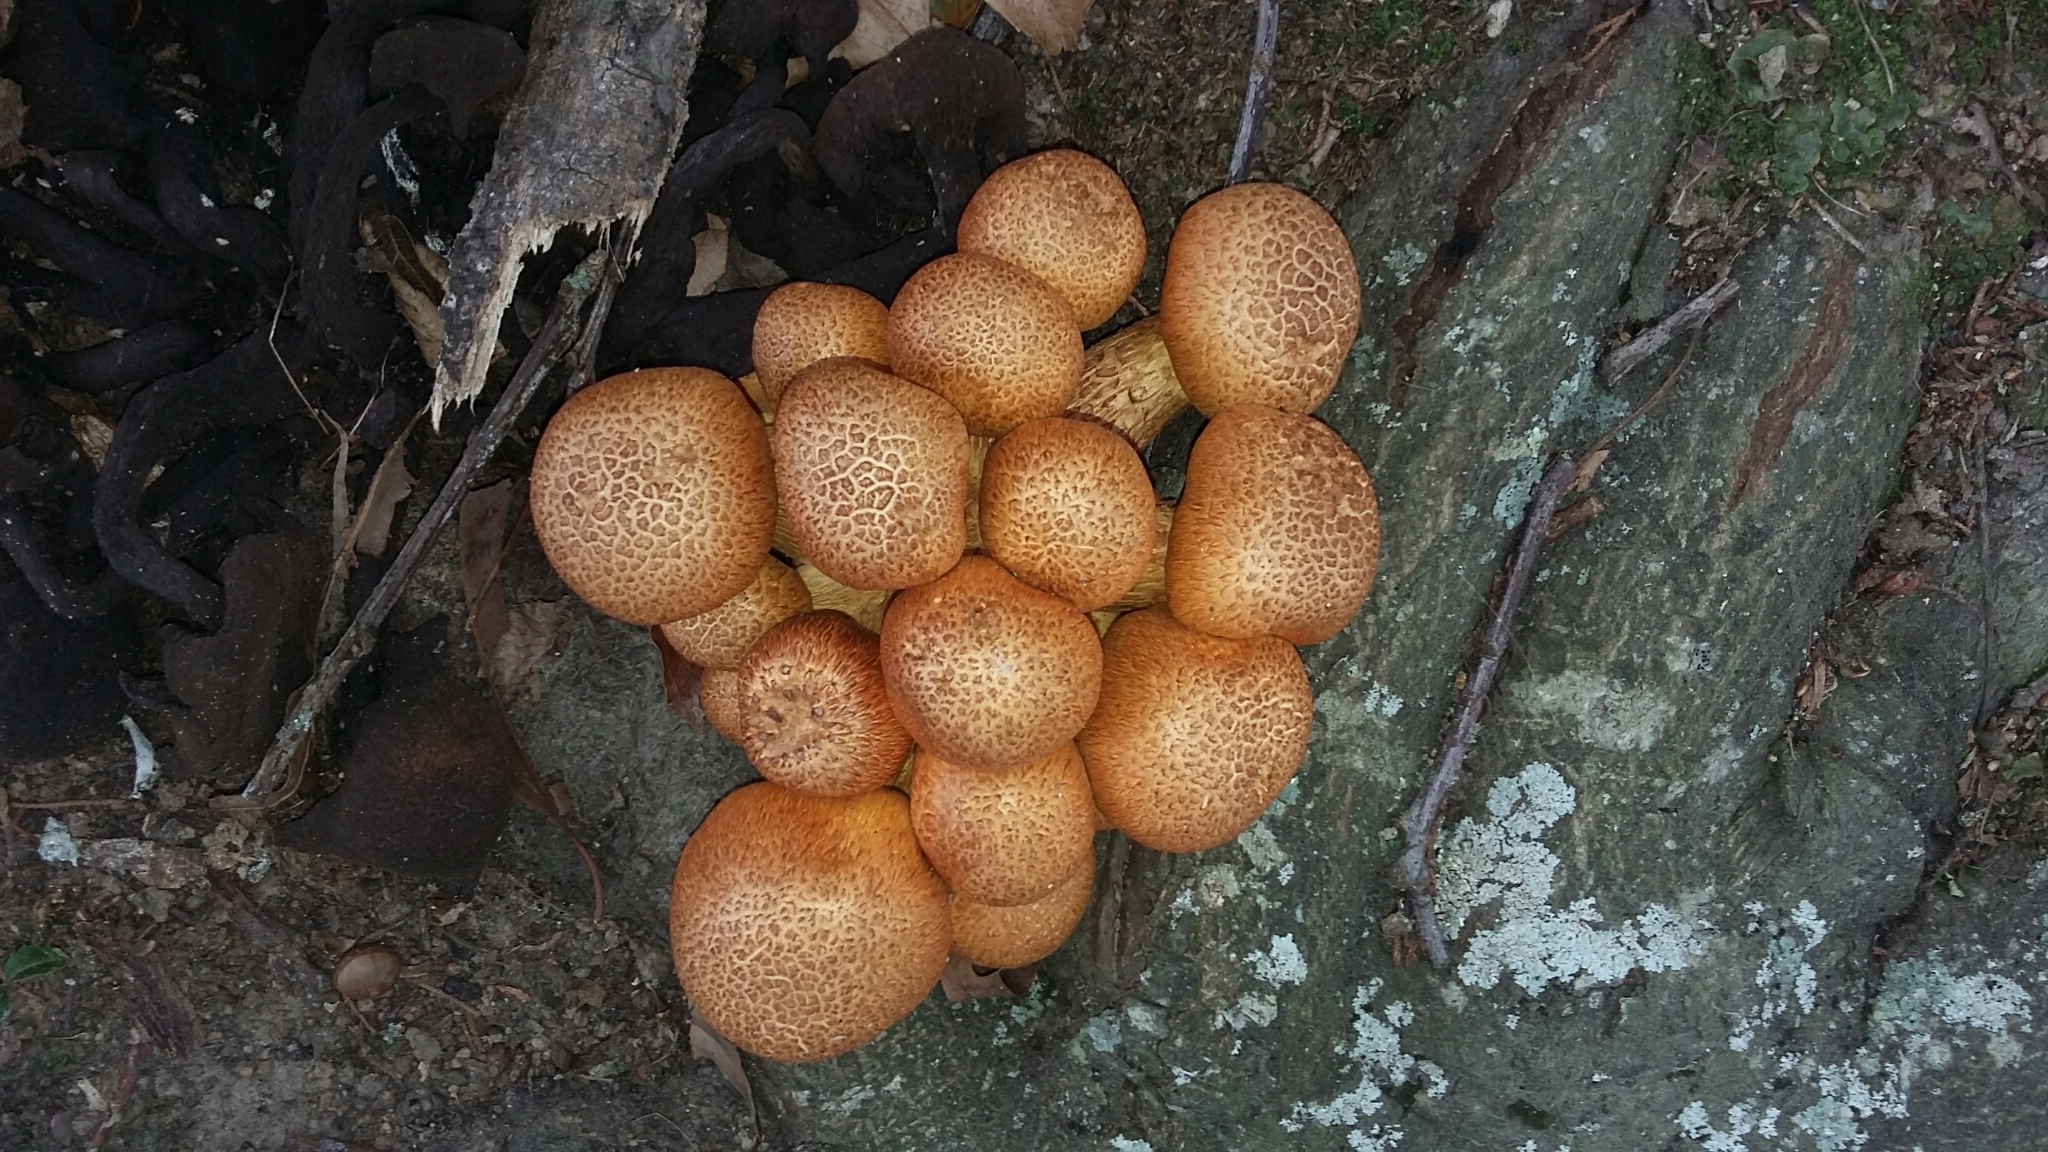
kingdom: Fungi
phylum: Basidiomycota
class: Agaricomycetes
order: Agaricales
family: Hymenogastraceae
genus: Gymnopilus
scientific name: Gymnopilus junonius
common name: Spectacular rustgill
